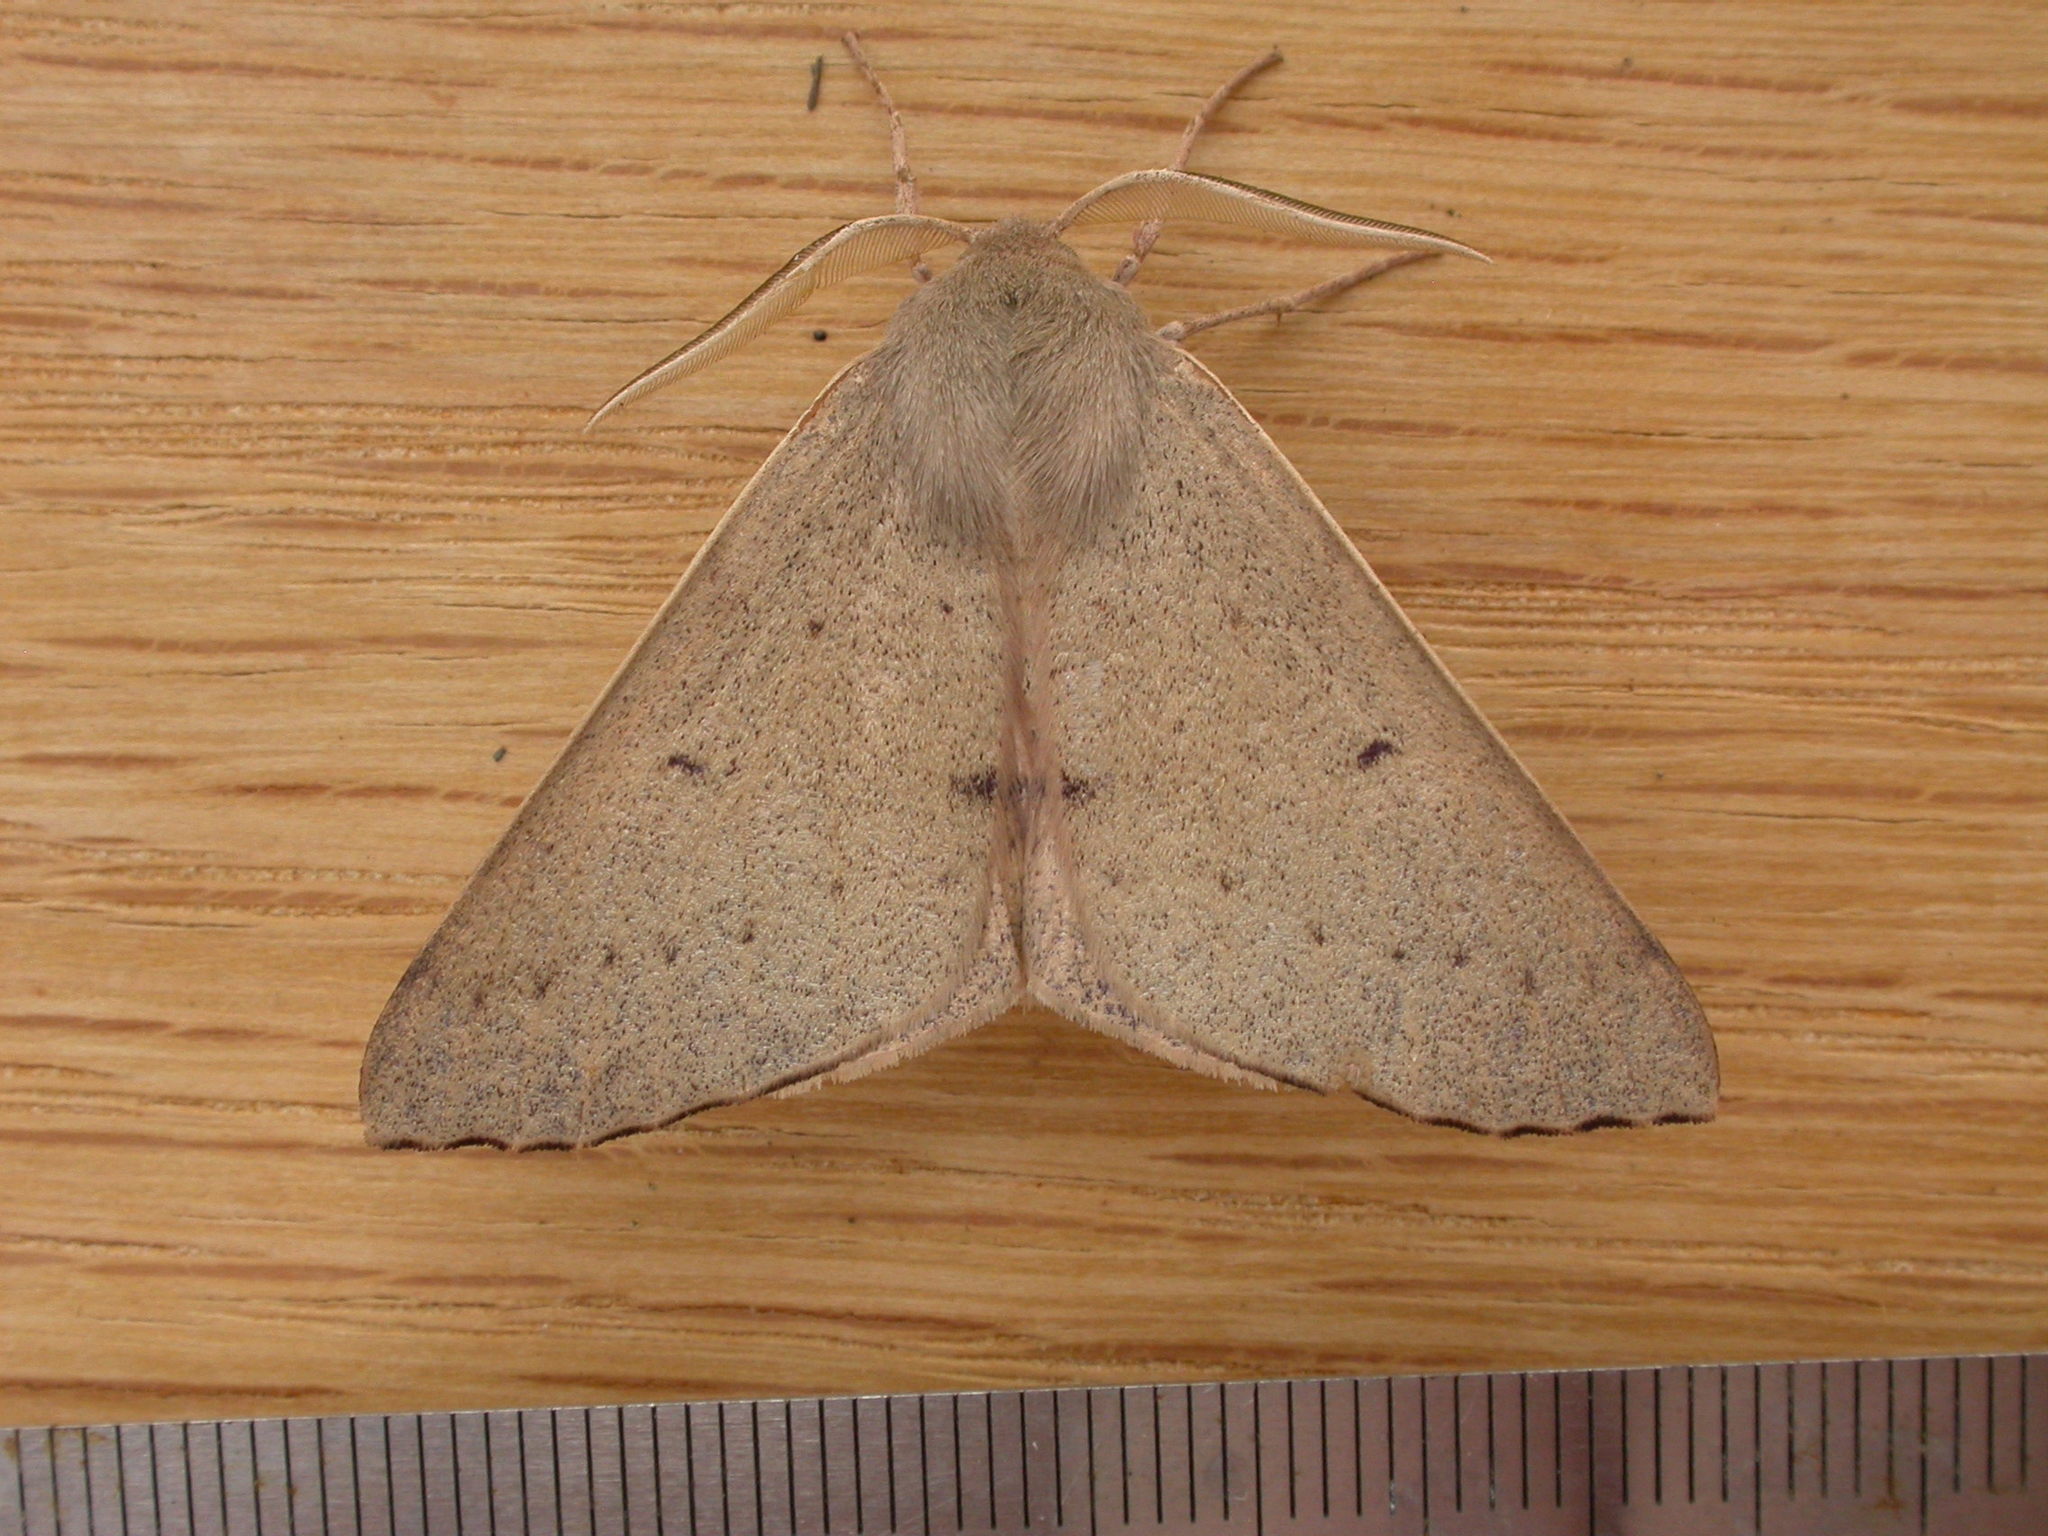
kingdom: Animalia
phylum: Arthropoda
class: Insecta
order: Lepidoptera
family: Geometridae
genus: Arhodia
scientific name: Arhodia lasiocamparia
